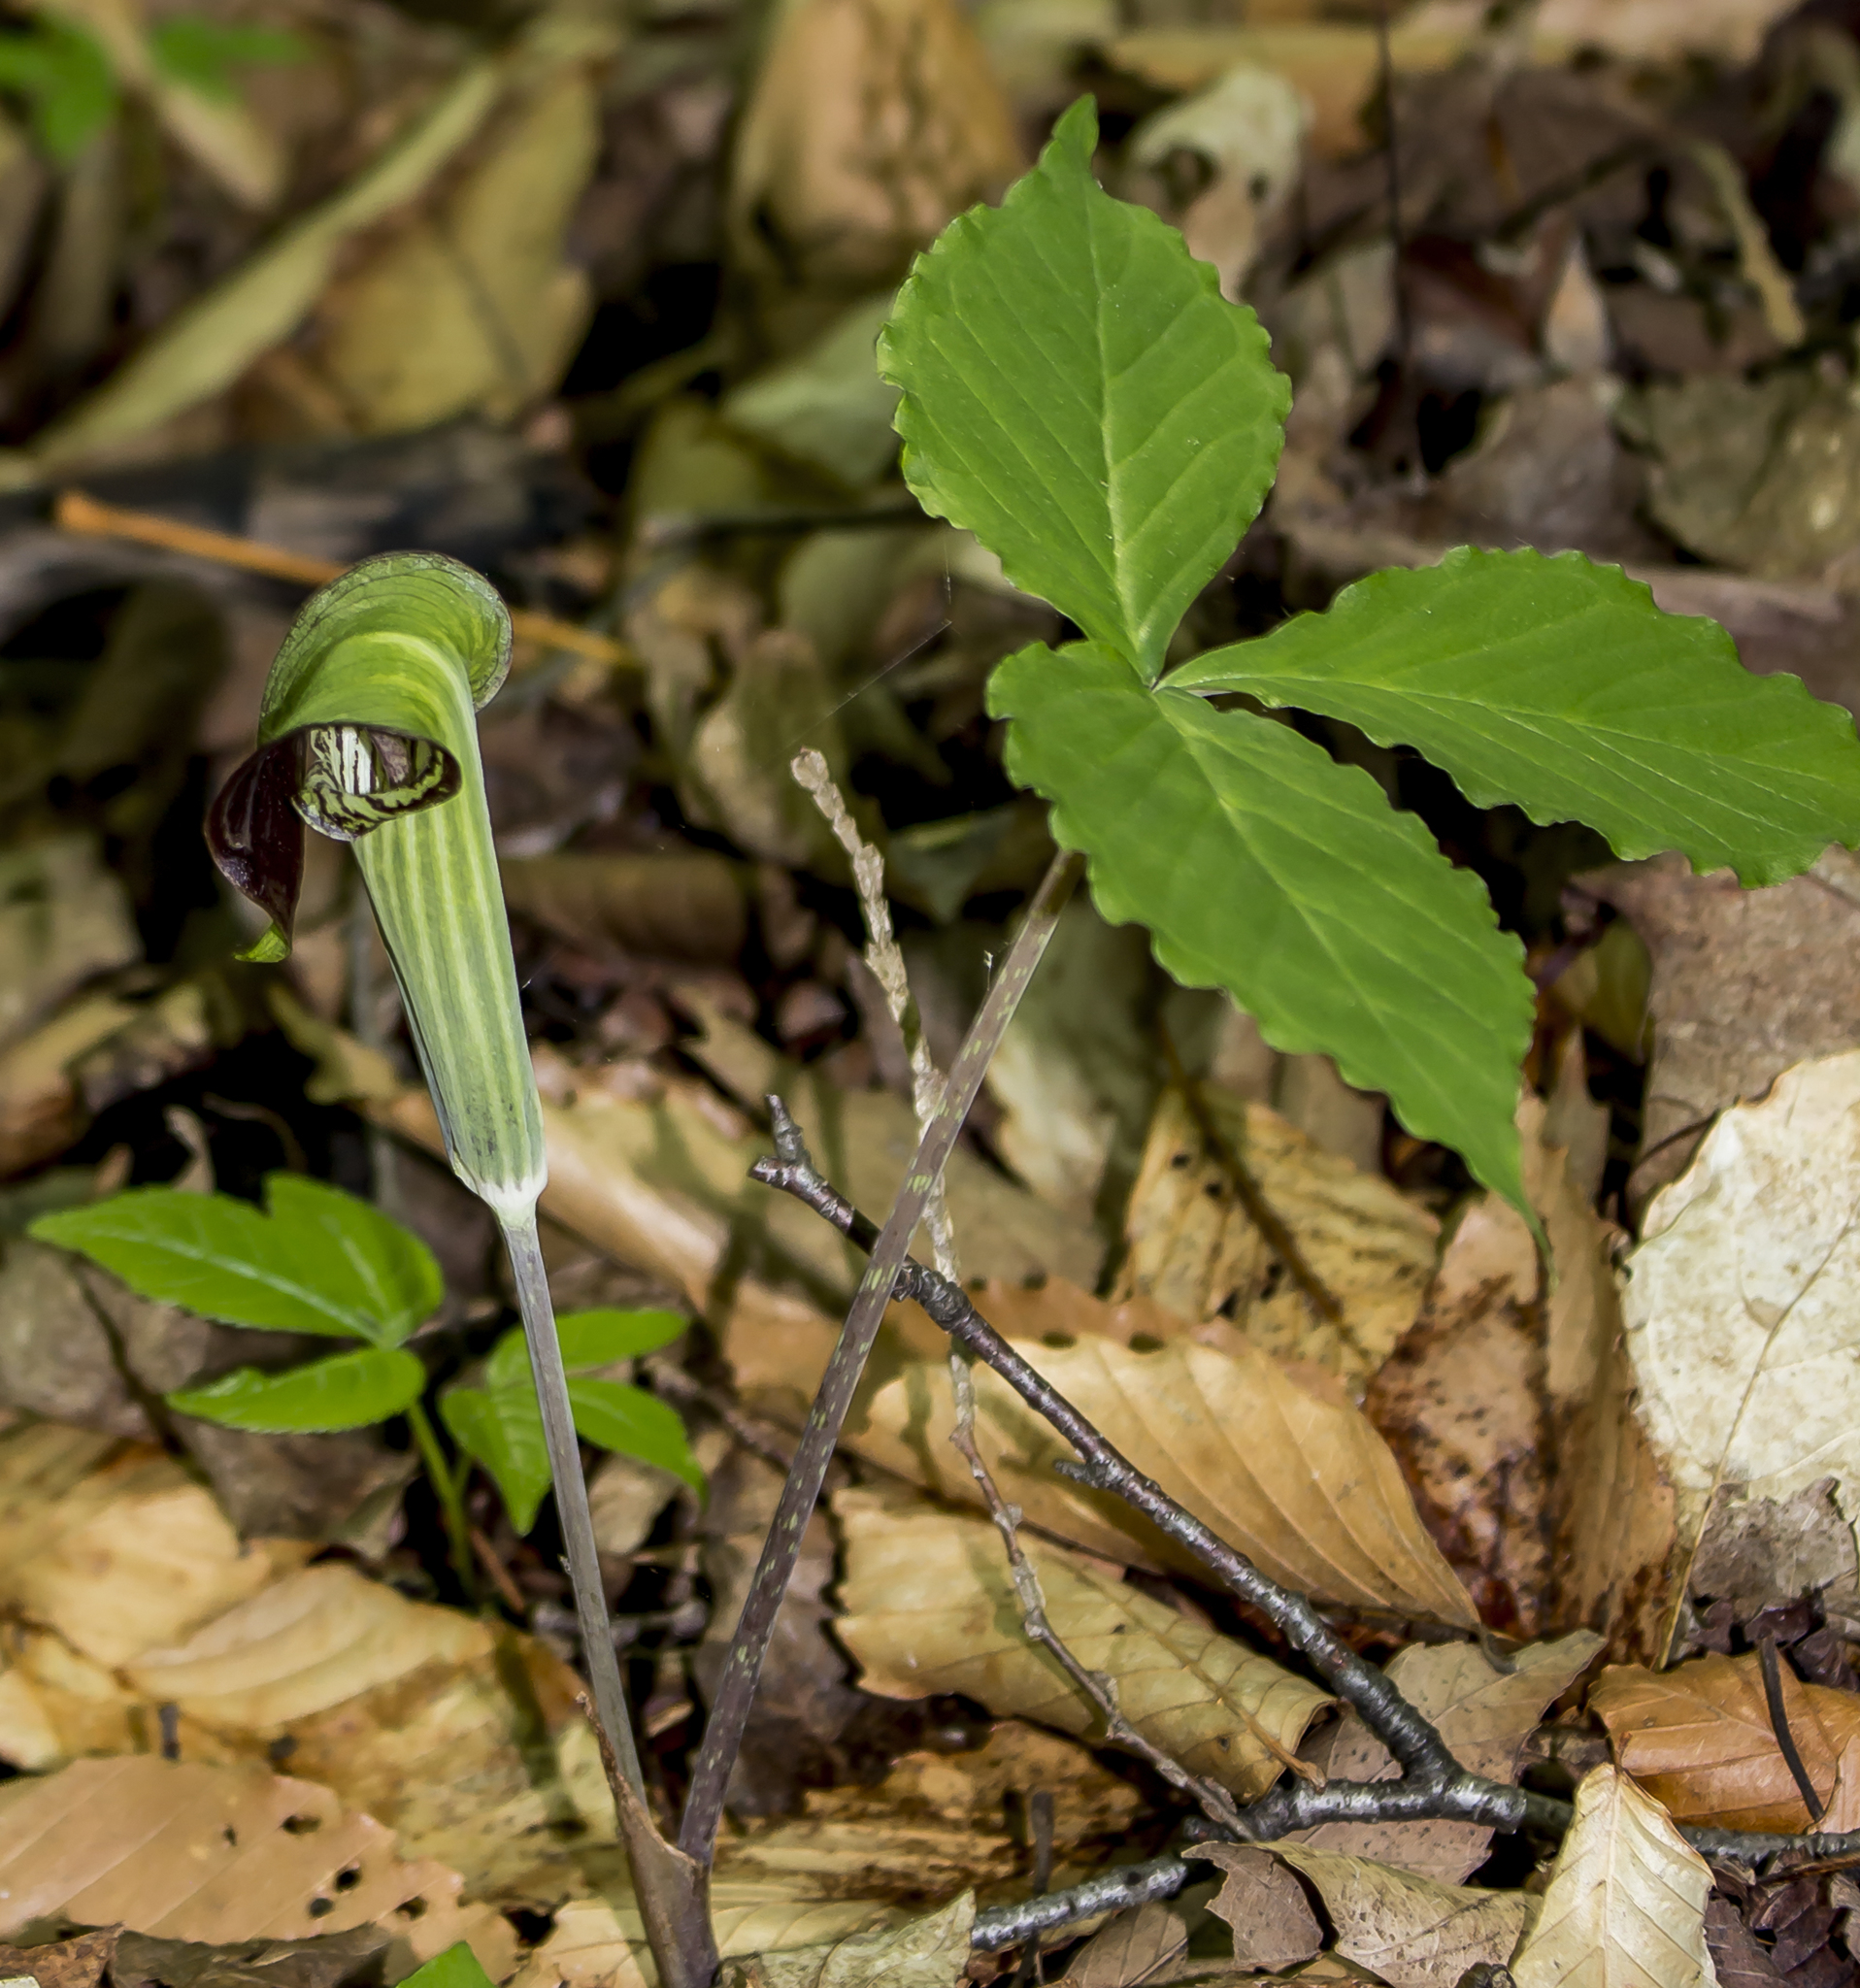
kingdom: Plantae
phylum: Tracheophyta
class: Liliopsida
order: Alismatales
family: Araceae
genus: Arisaema
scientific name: Arisaema triphyllum
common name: Jack-in-the-pulpit
